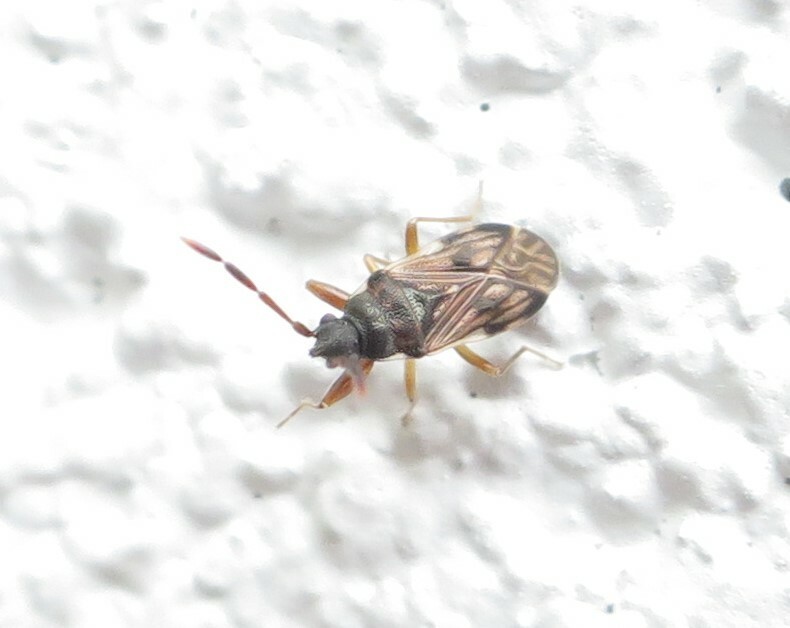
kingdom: Animalia
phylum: Arthropoda
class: Insecta
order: Hemiptera
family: Rhyparochromidae
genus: Brentiscerus
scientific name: Brentiscerus putoni
